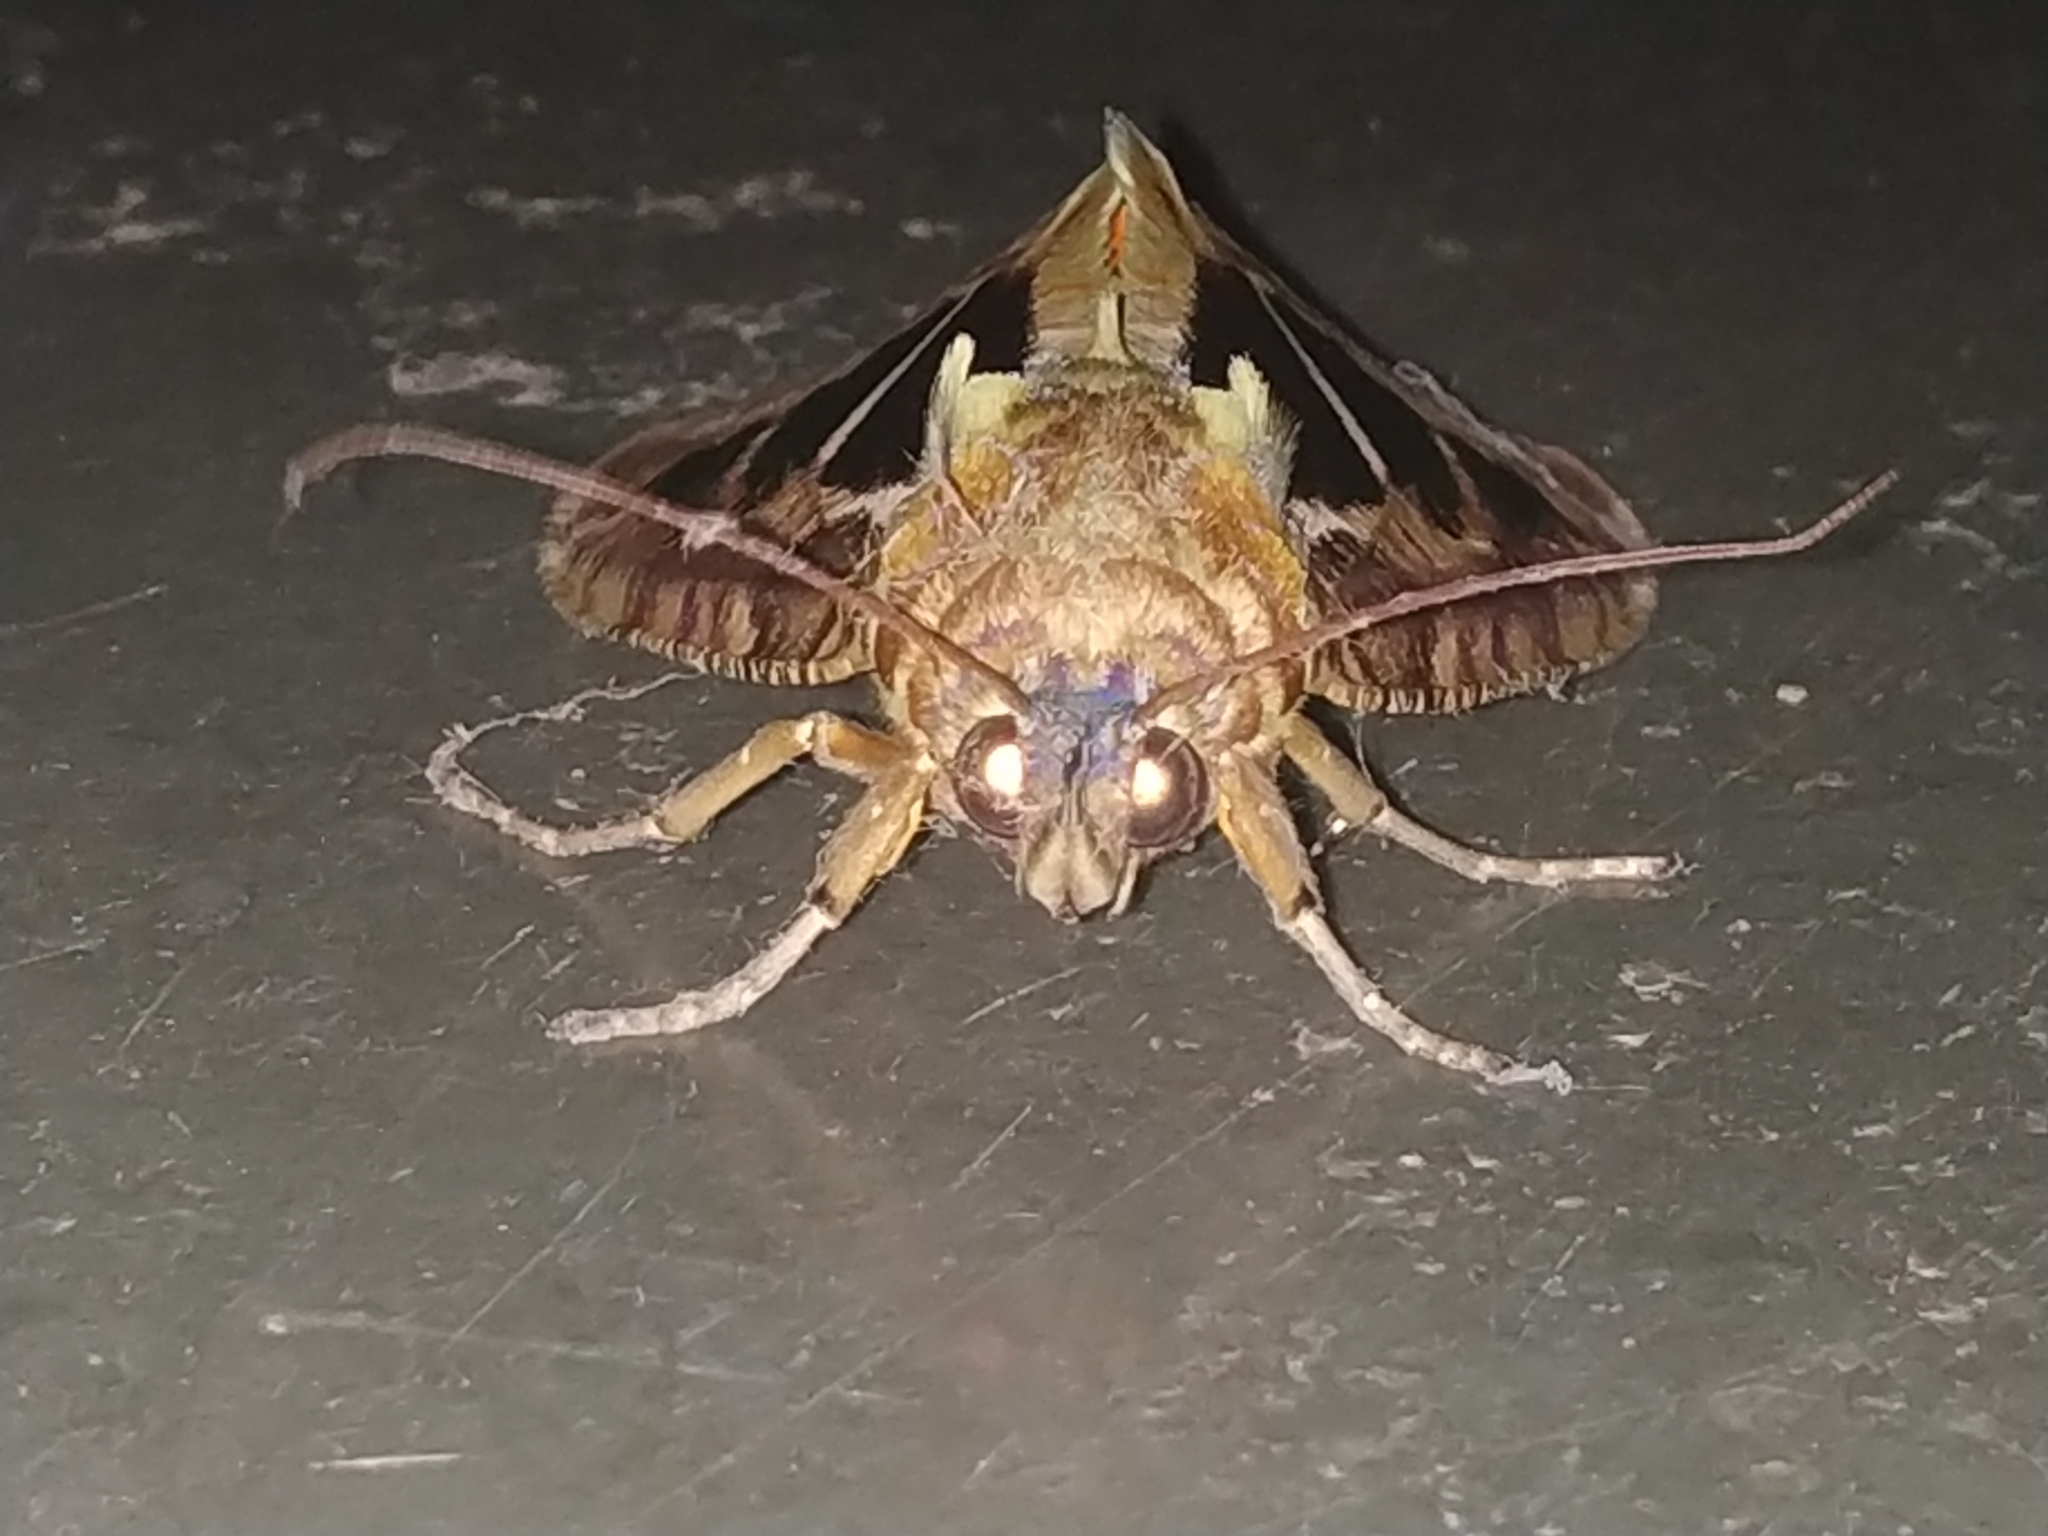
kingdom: Animalia
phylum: Arthropoda
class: Insecta
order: Lepidoptera
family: Erebidae
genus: Eudocima
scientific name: Eudocima materna
